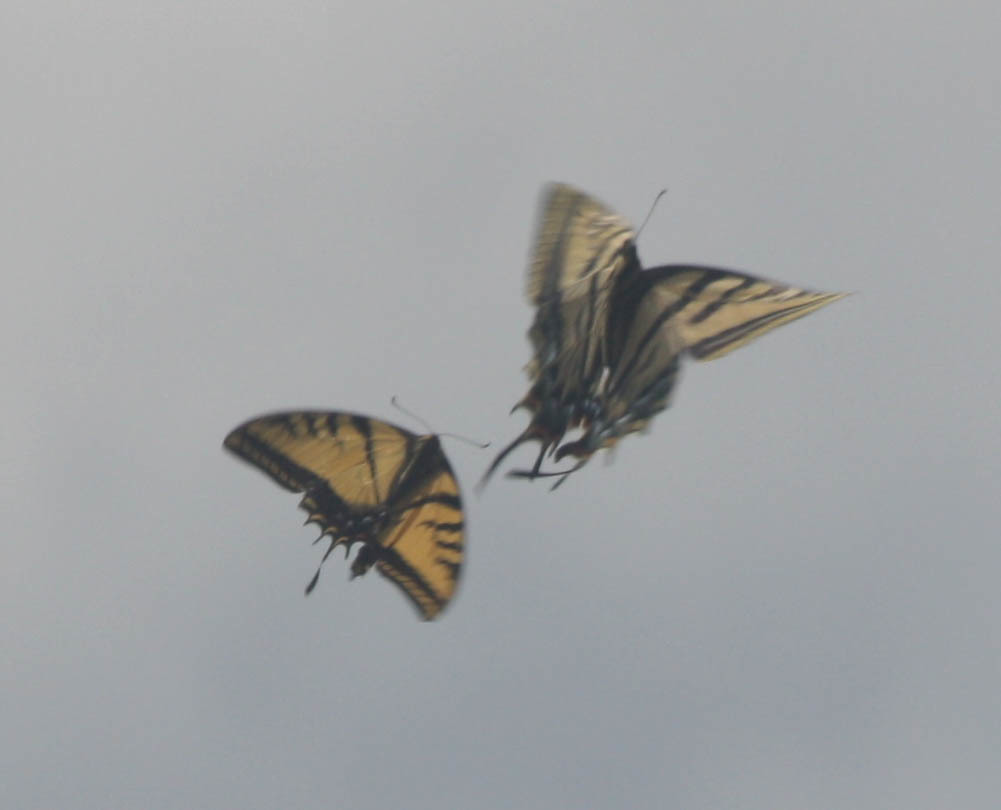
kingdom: Animalia
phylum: Arthropoda
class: Insecta
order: Lepidoptera
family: Papilionidae
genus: Papilio
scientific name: Papilio multicaudata
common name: Two-tailed tiger swallowtail
